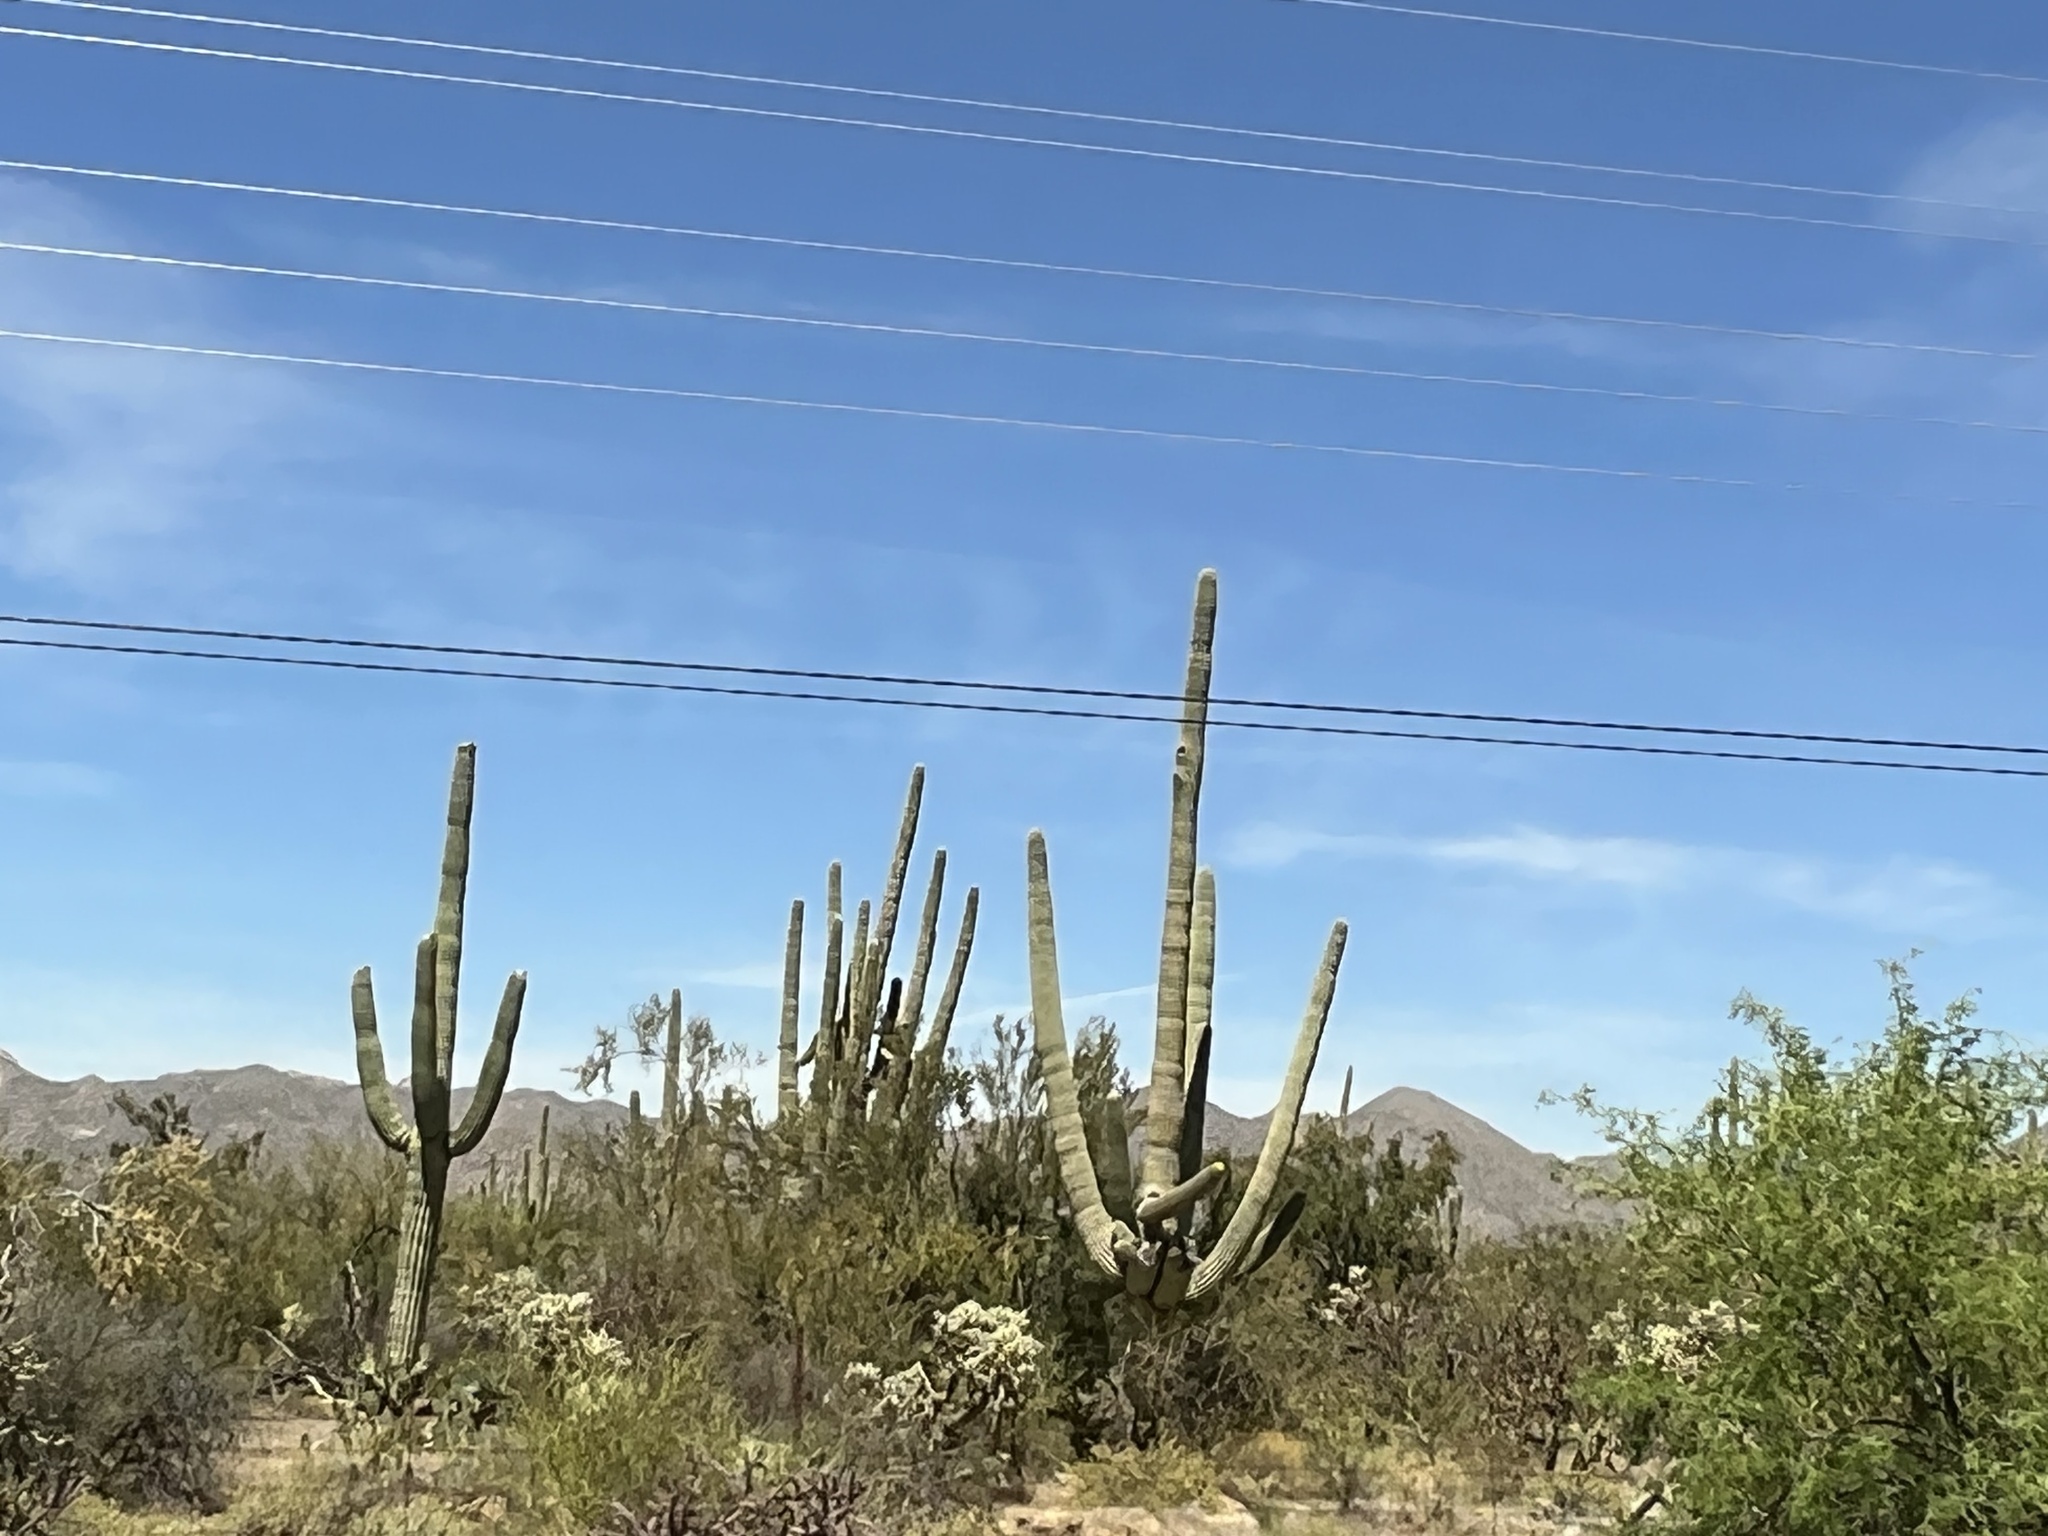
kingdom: Plantae
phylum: Tracheophyta
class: Magnoliopsida
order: Caryophyllales
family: Cactaceae
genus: Carnegiea
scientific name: Carnegiea gigantea
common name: Saguaro
